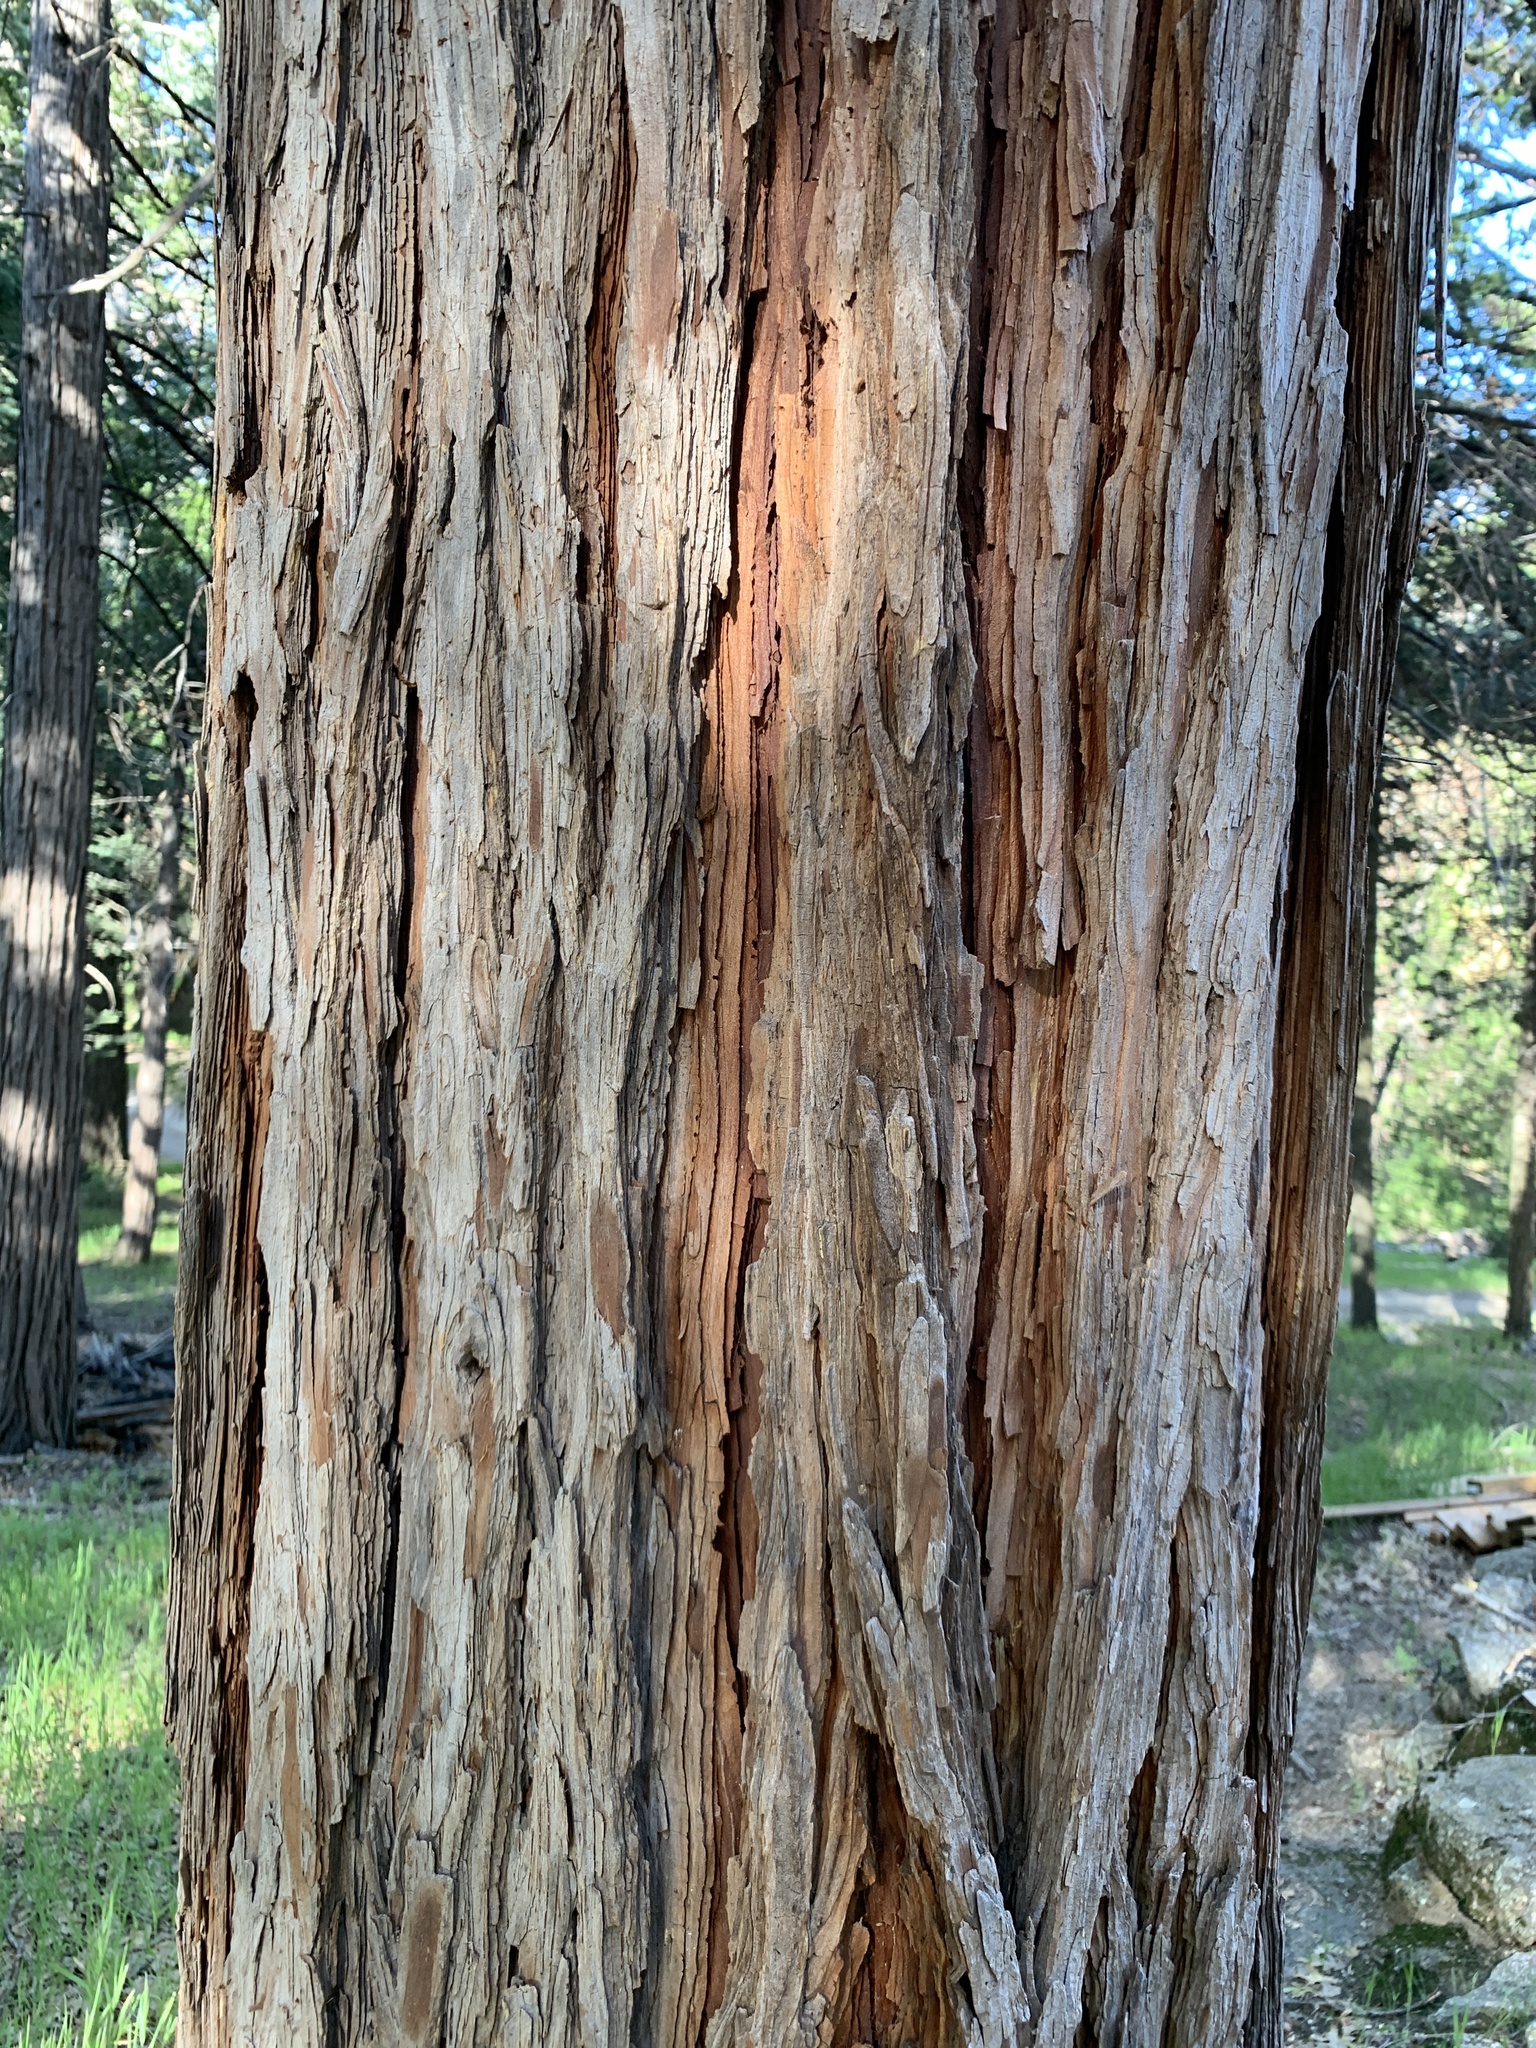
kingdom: Plantae
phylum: Tracheophyta
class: Pinopsida
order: Pinales
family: Cupressaceae
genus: Calocedrus
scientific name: Calocedrus decurrens
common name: Californian incense-cedar
